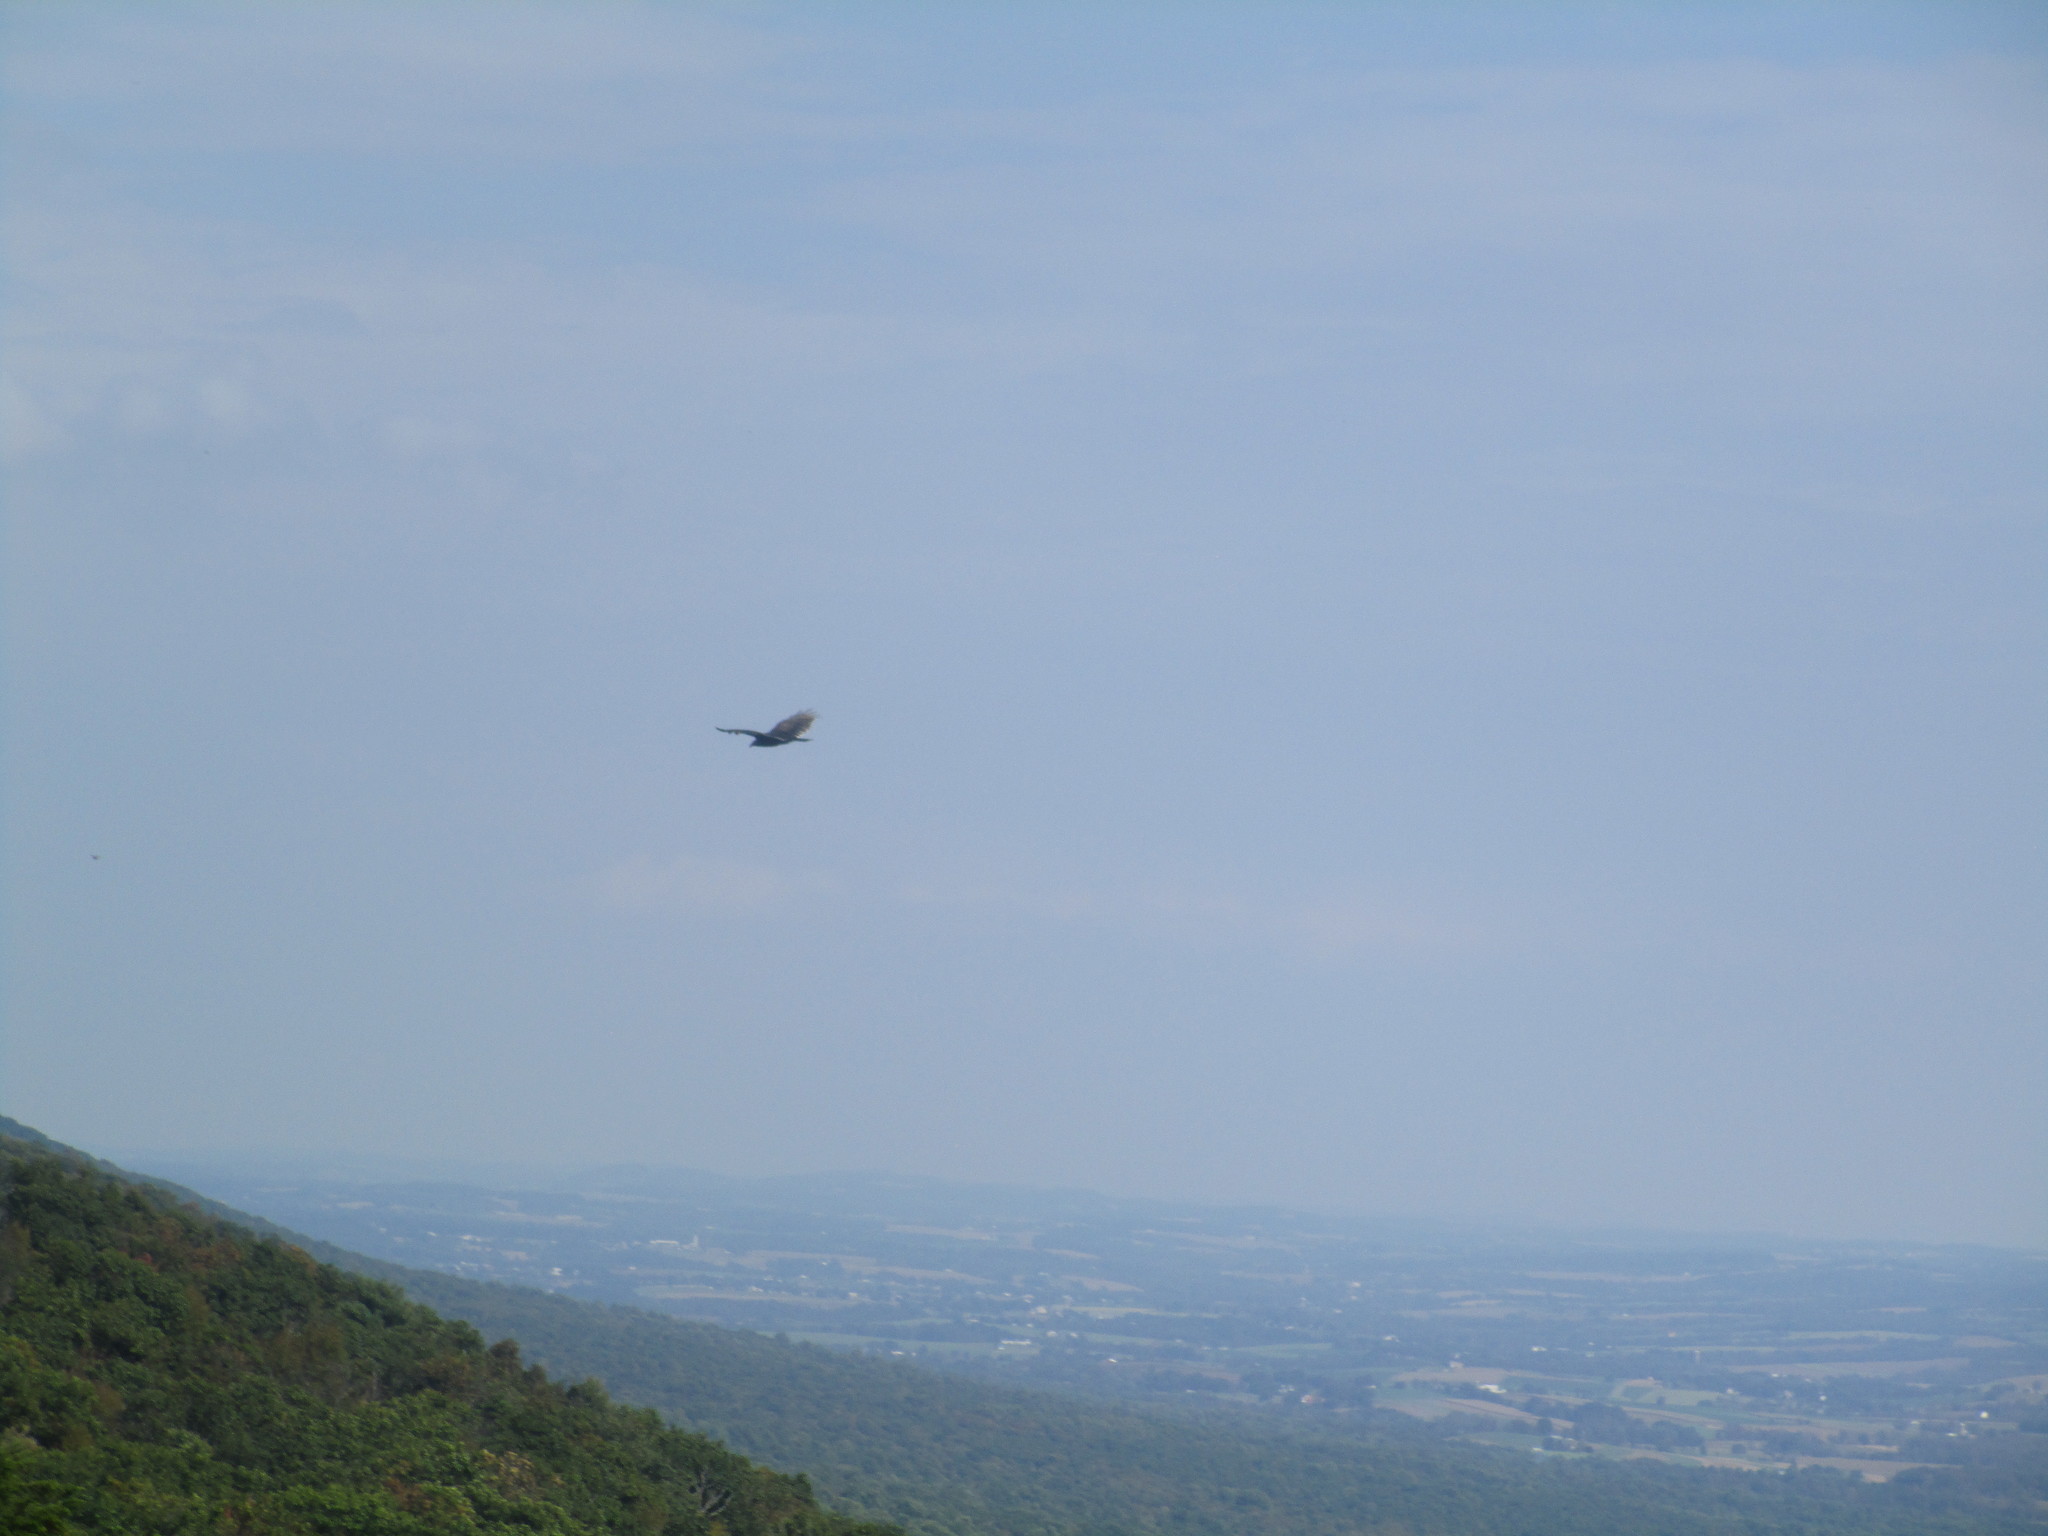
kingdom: Animalia
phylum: Chordata
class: Aves
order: Accipitriformes
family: Cathartidae
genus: Cathartes
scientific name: Cathartes aura
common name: Turkey vulture
